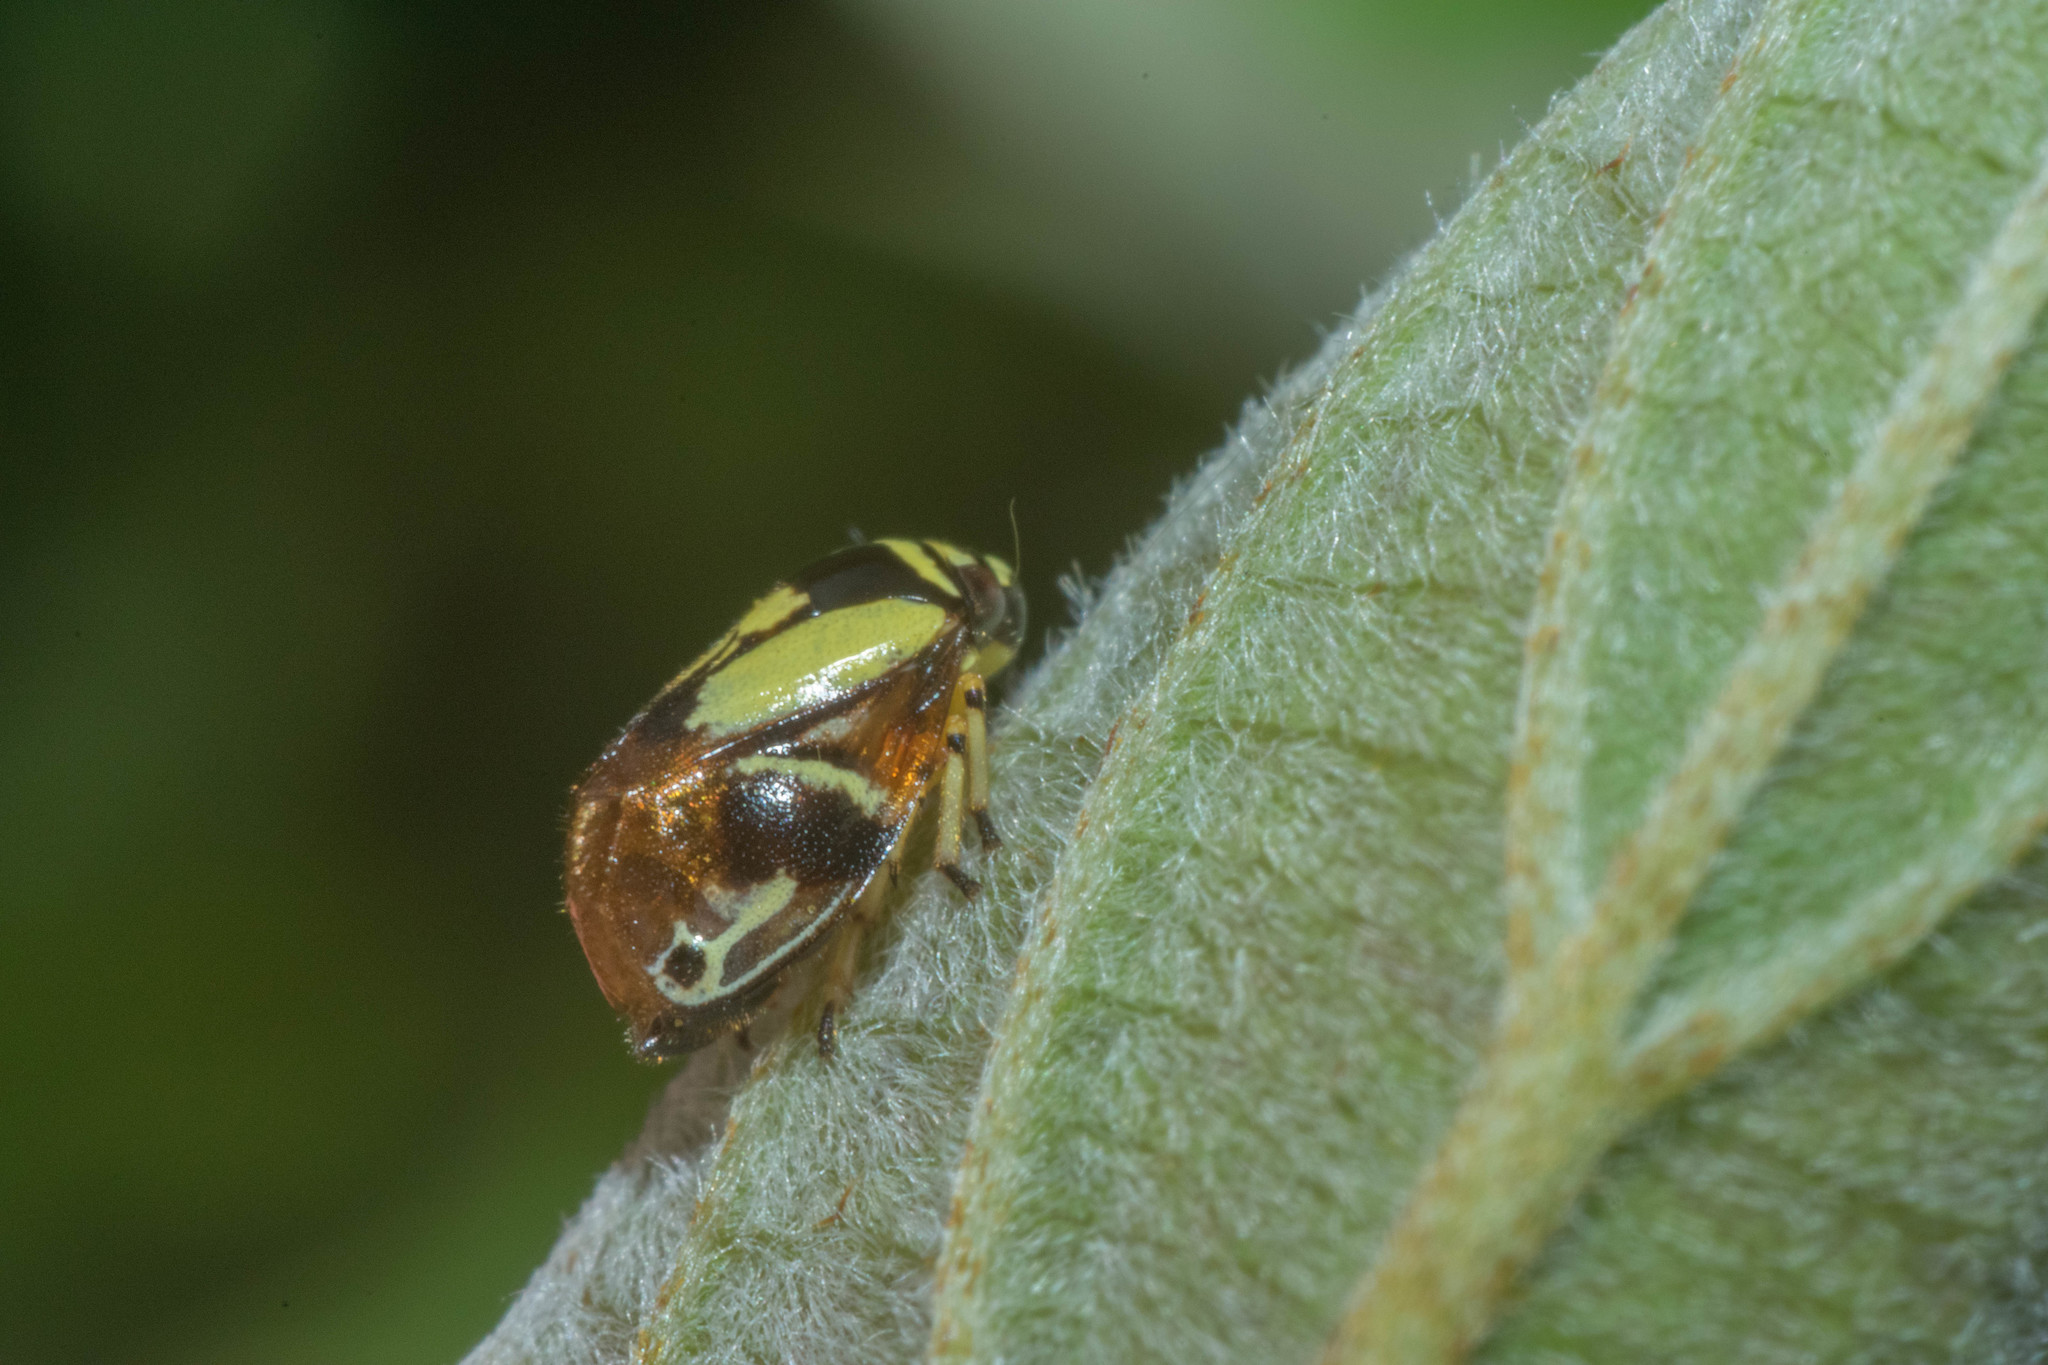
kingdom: Animalia
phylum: Arthropoda
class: Insecta
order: Hemiptera
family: Clastopteridae
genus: Clastoptera
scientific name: Clastoptera proteus
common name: Dogwood spittlebug
